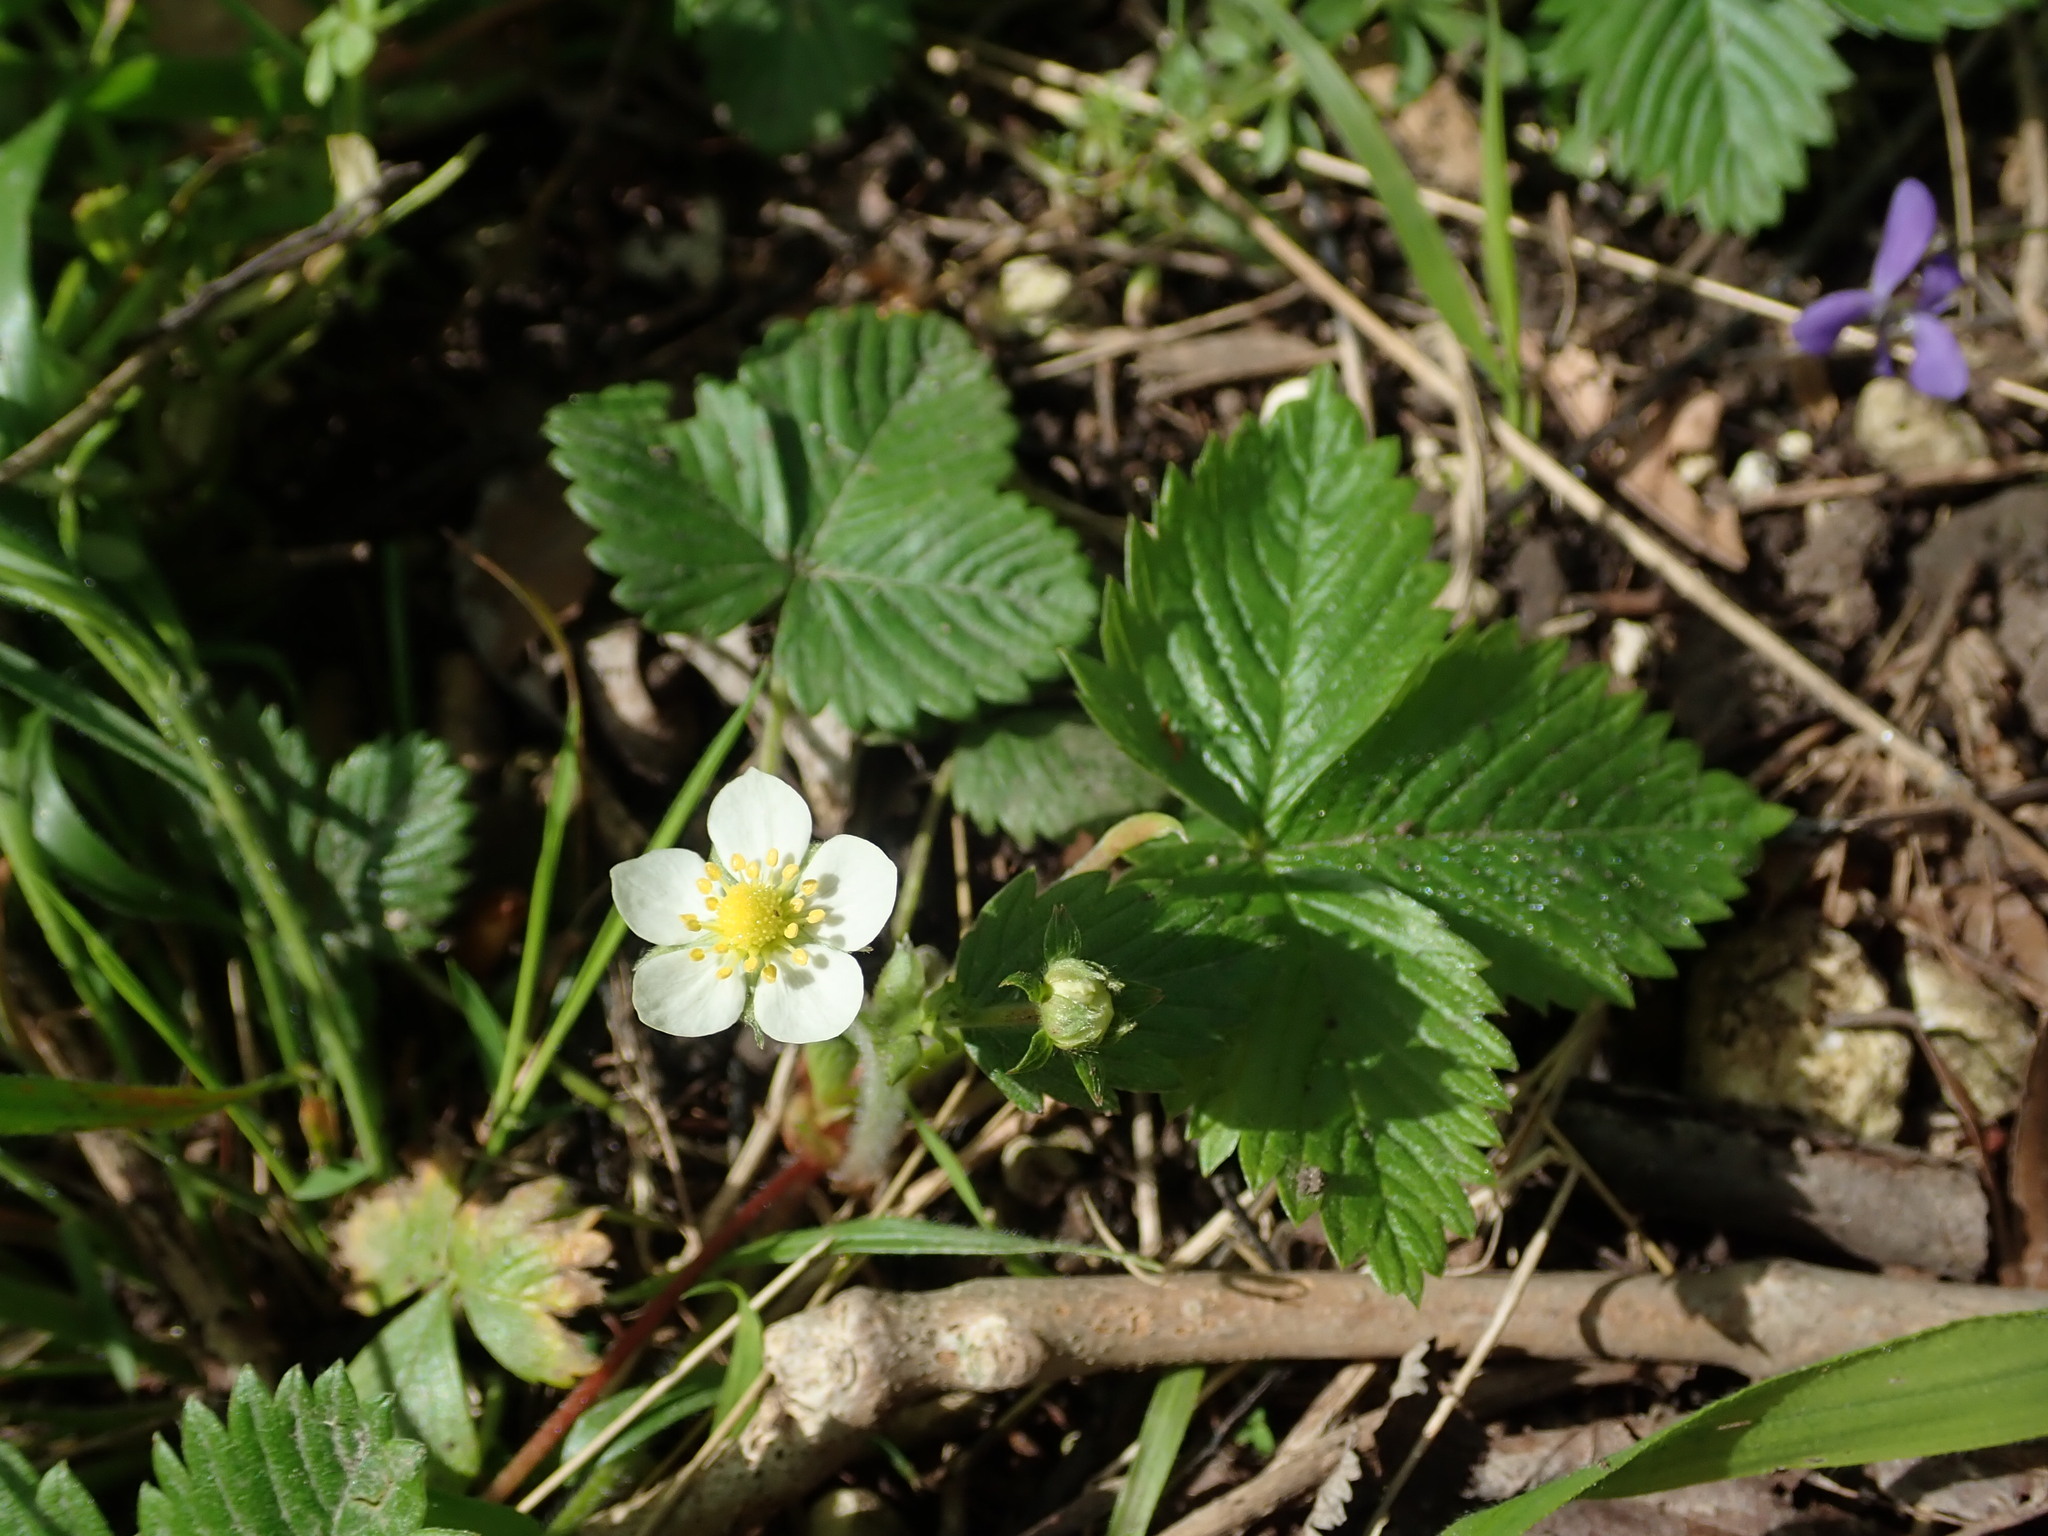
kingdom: Plantae
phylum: Tracheophyta
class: Magnoliopsida
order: Rosales
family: Rosaceae
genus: Fragaria
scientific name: Fragaria vesca
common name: Wild strawberry
